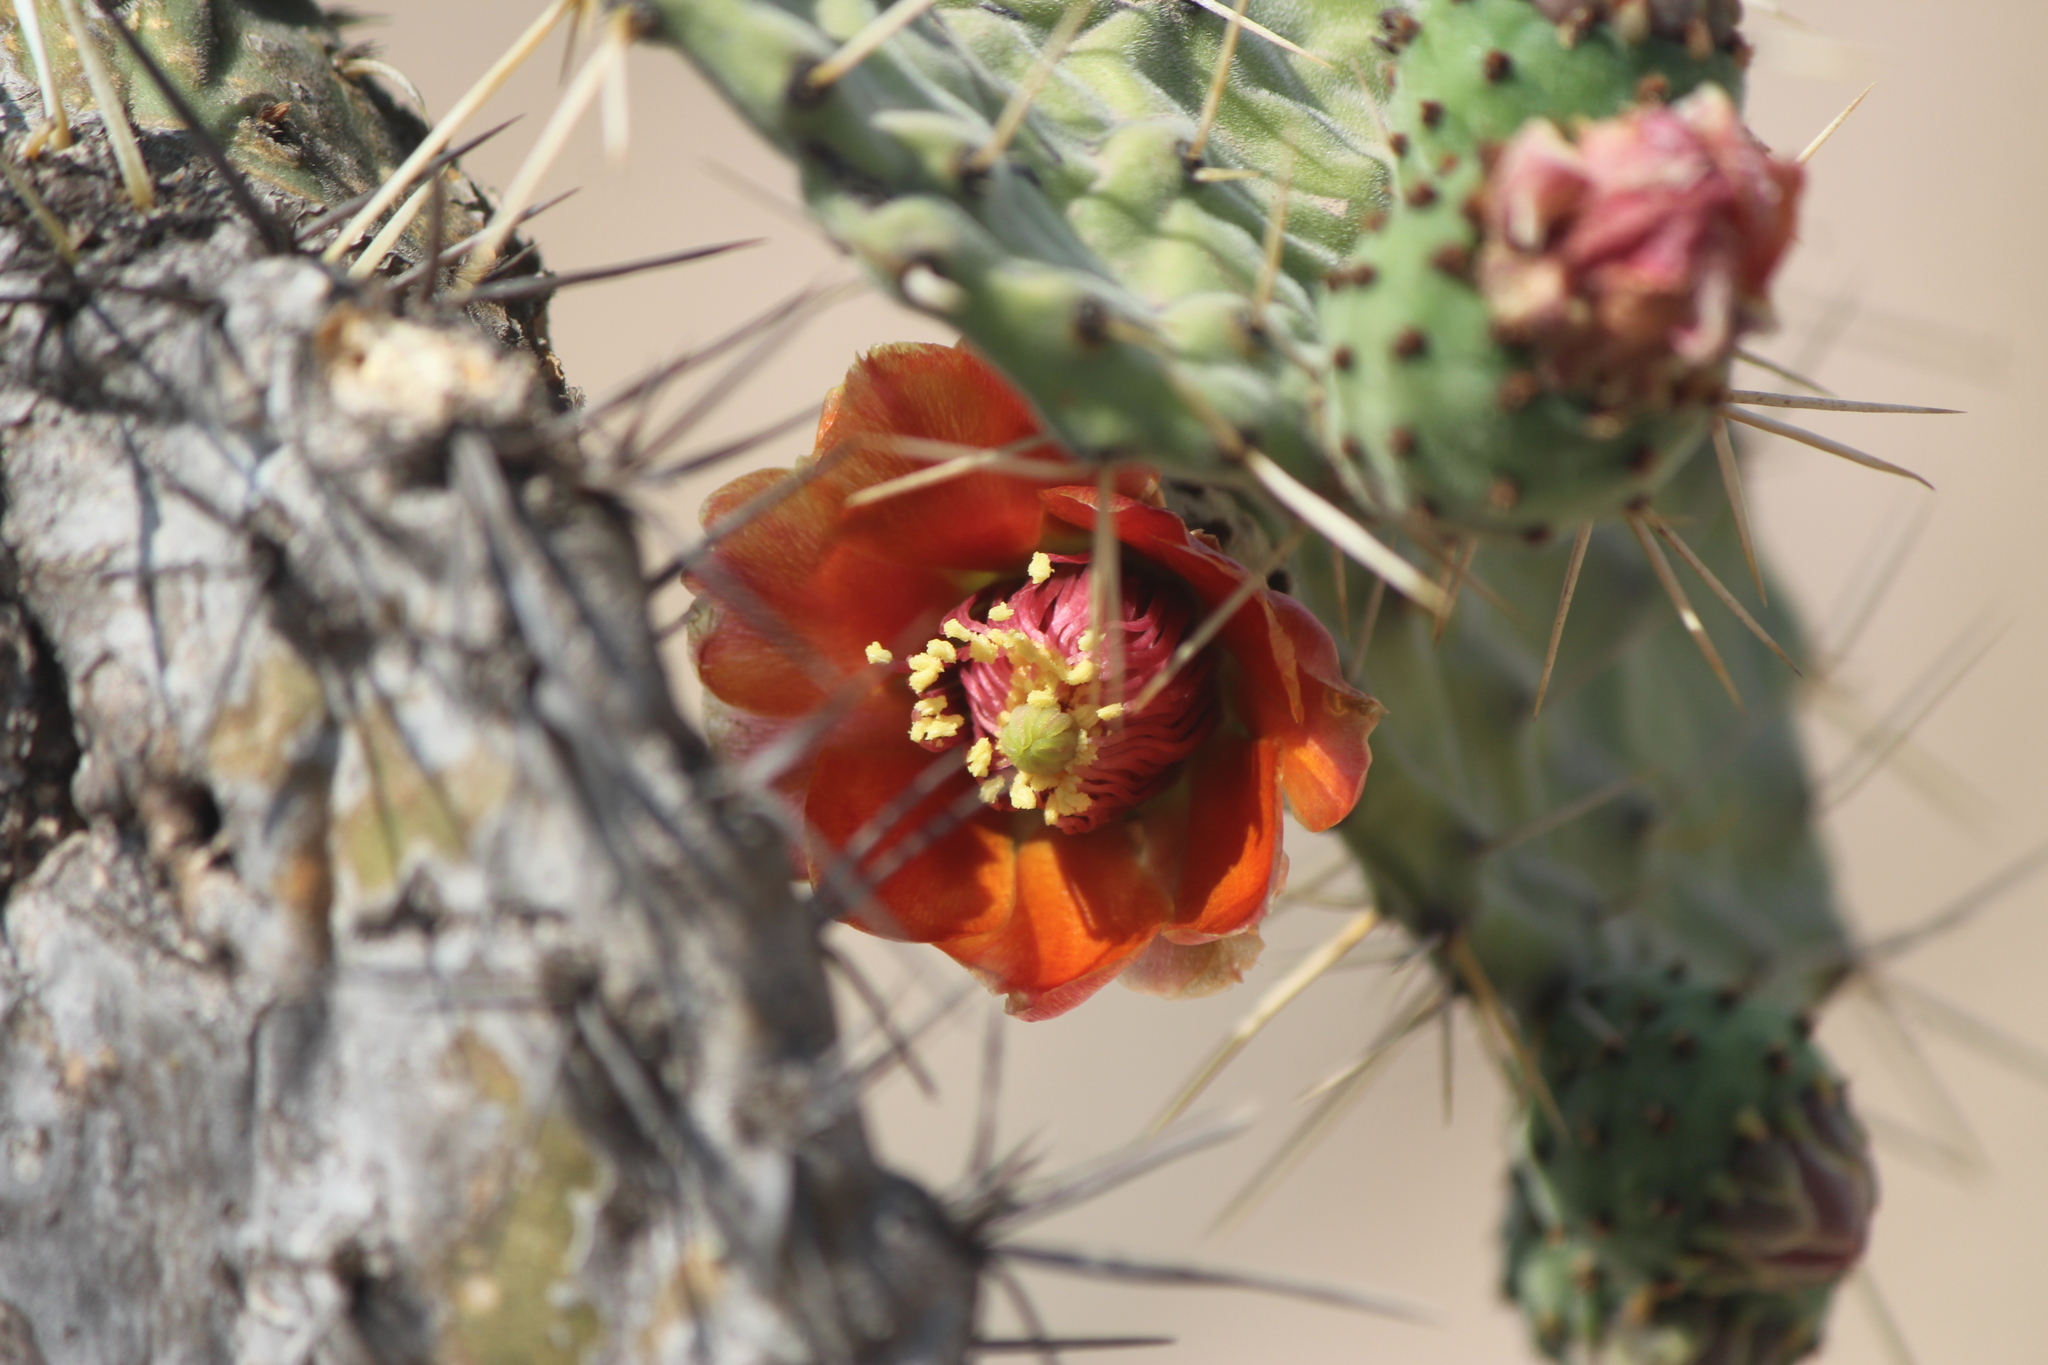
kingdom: Plantae
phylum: Tracheophyta
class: Magnoliopsida
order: Caryophyllales
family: Cactaceae
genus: Opuntia
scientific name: Opuntia tomentosa
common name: Woollyjoint pricklypear
